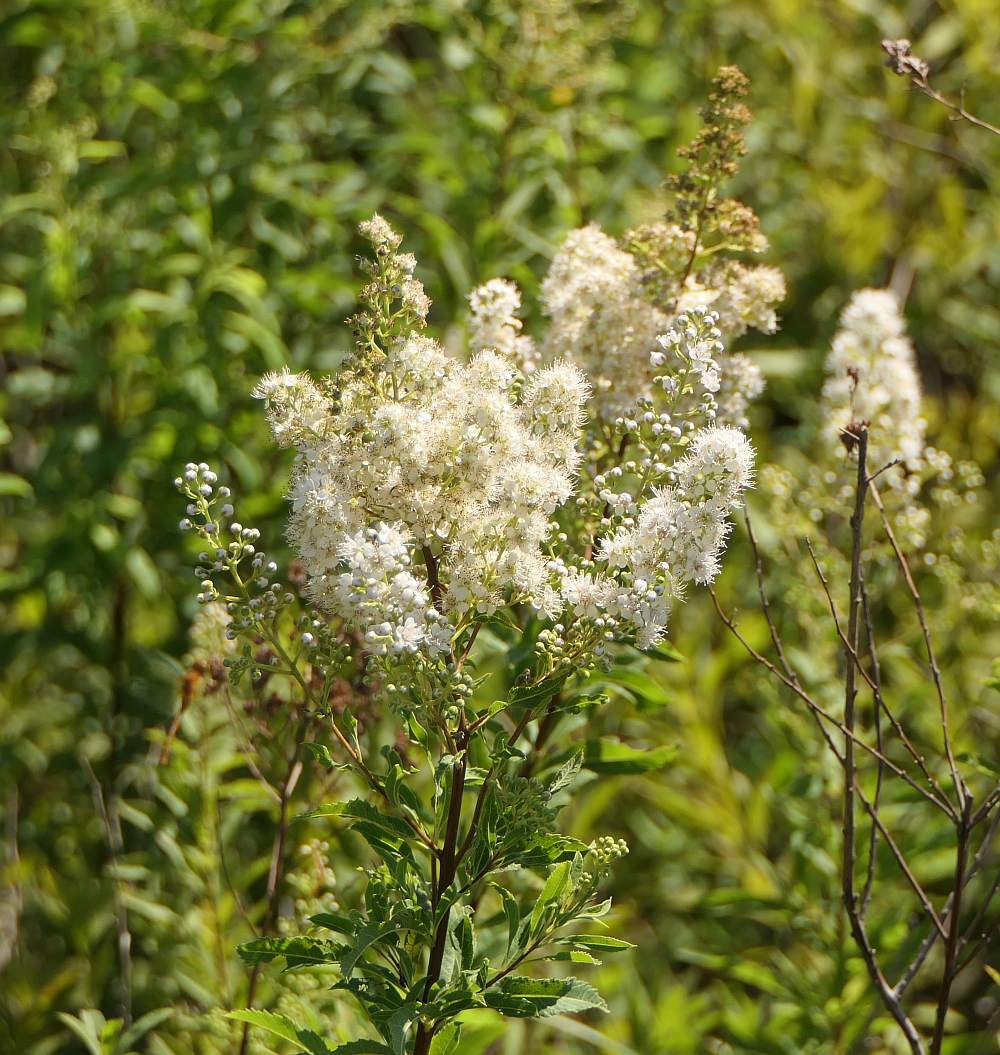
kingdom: Plantae
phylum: Tracheophyta
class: Magnoliopsida
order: Rosales
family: Rosaceae
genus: Spiraea
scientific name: Spiraea alba
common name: Pale bridewort
